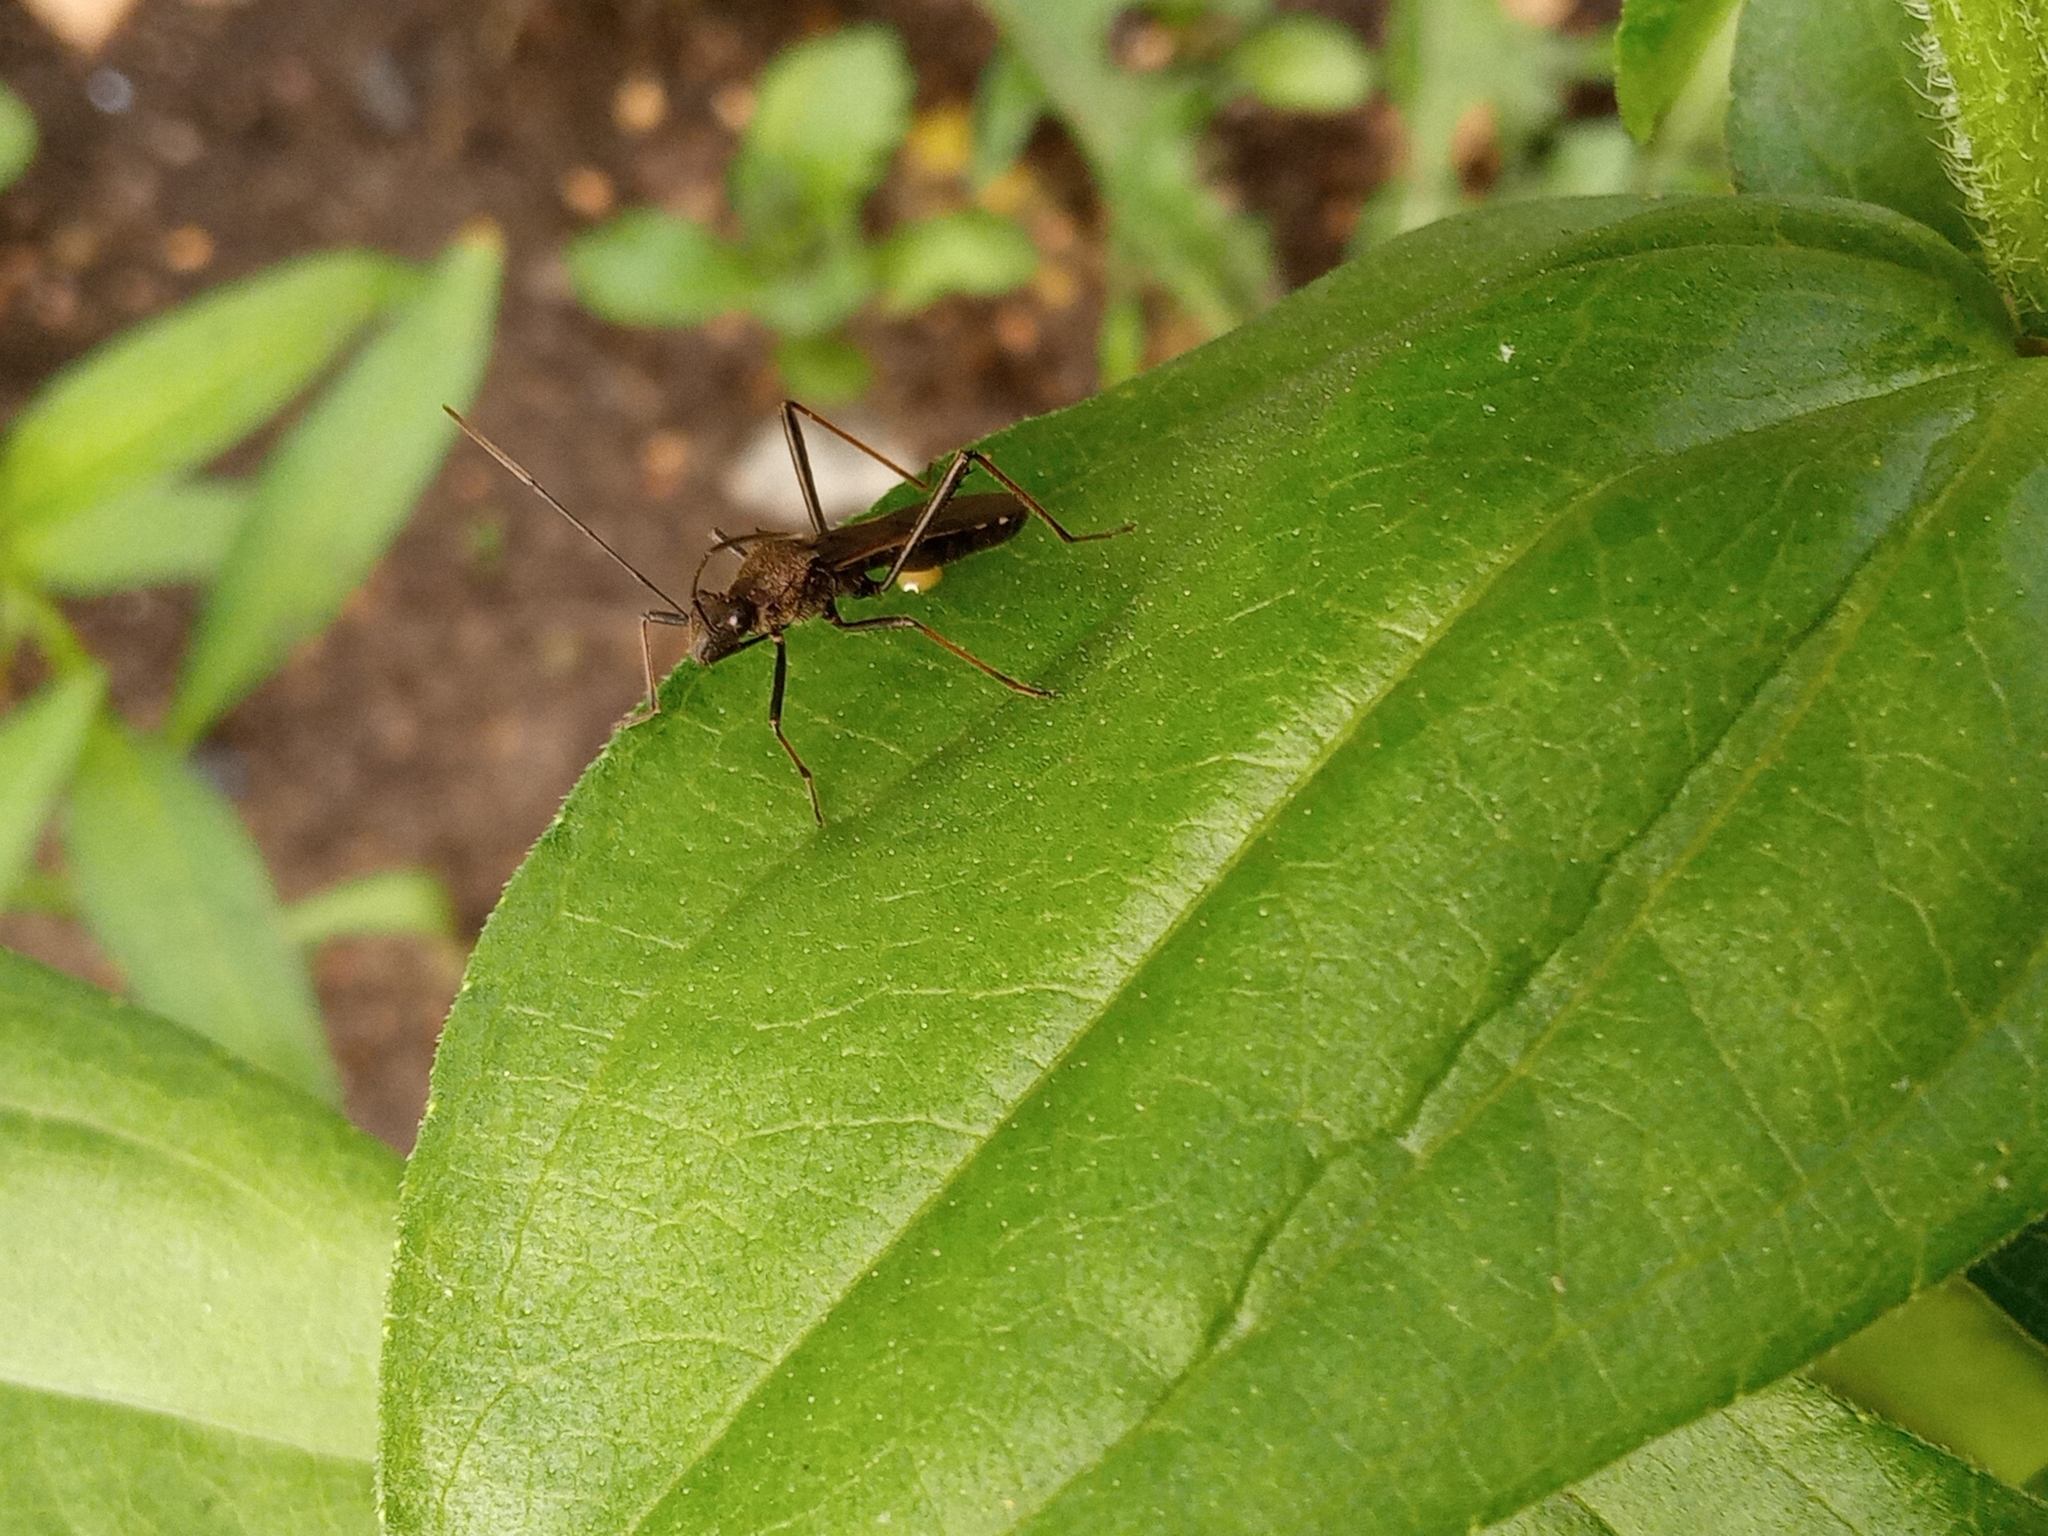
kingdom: Animalia
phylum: Arthropoda
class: Insecta
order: Hemiptera
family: Alydidae
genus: Megalotomus
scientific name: Megalotomus junceus
